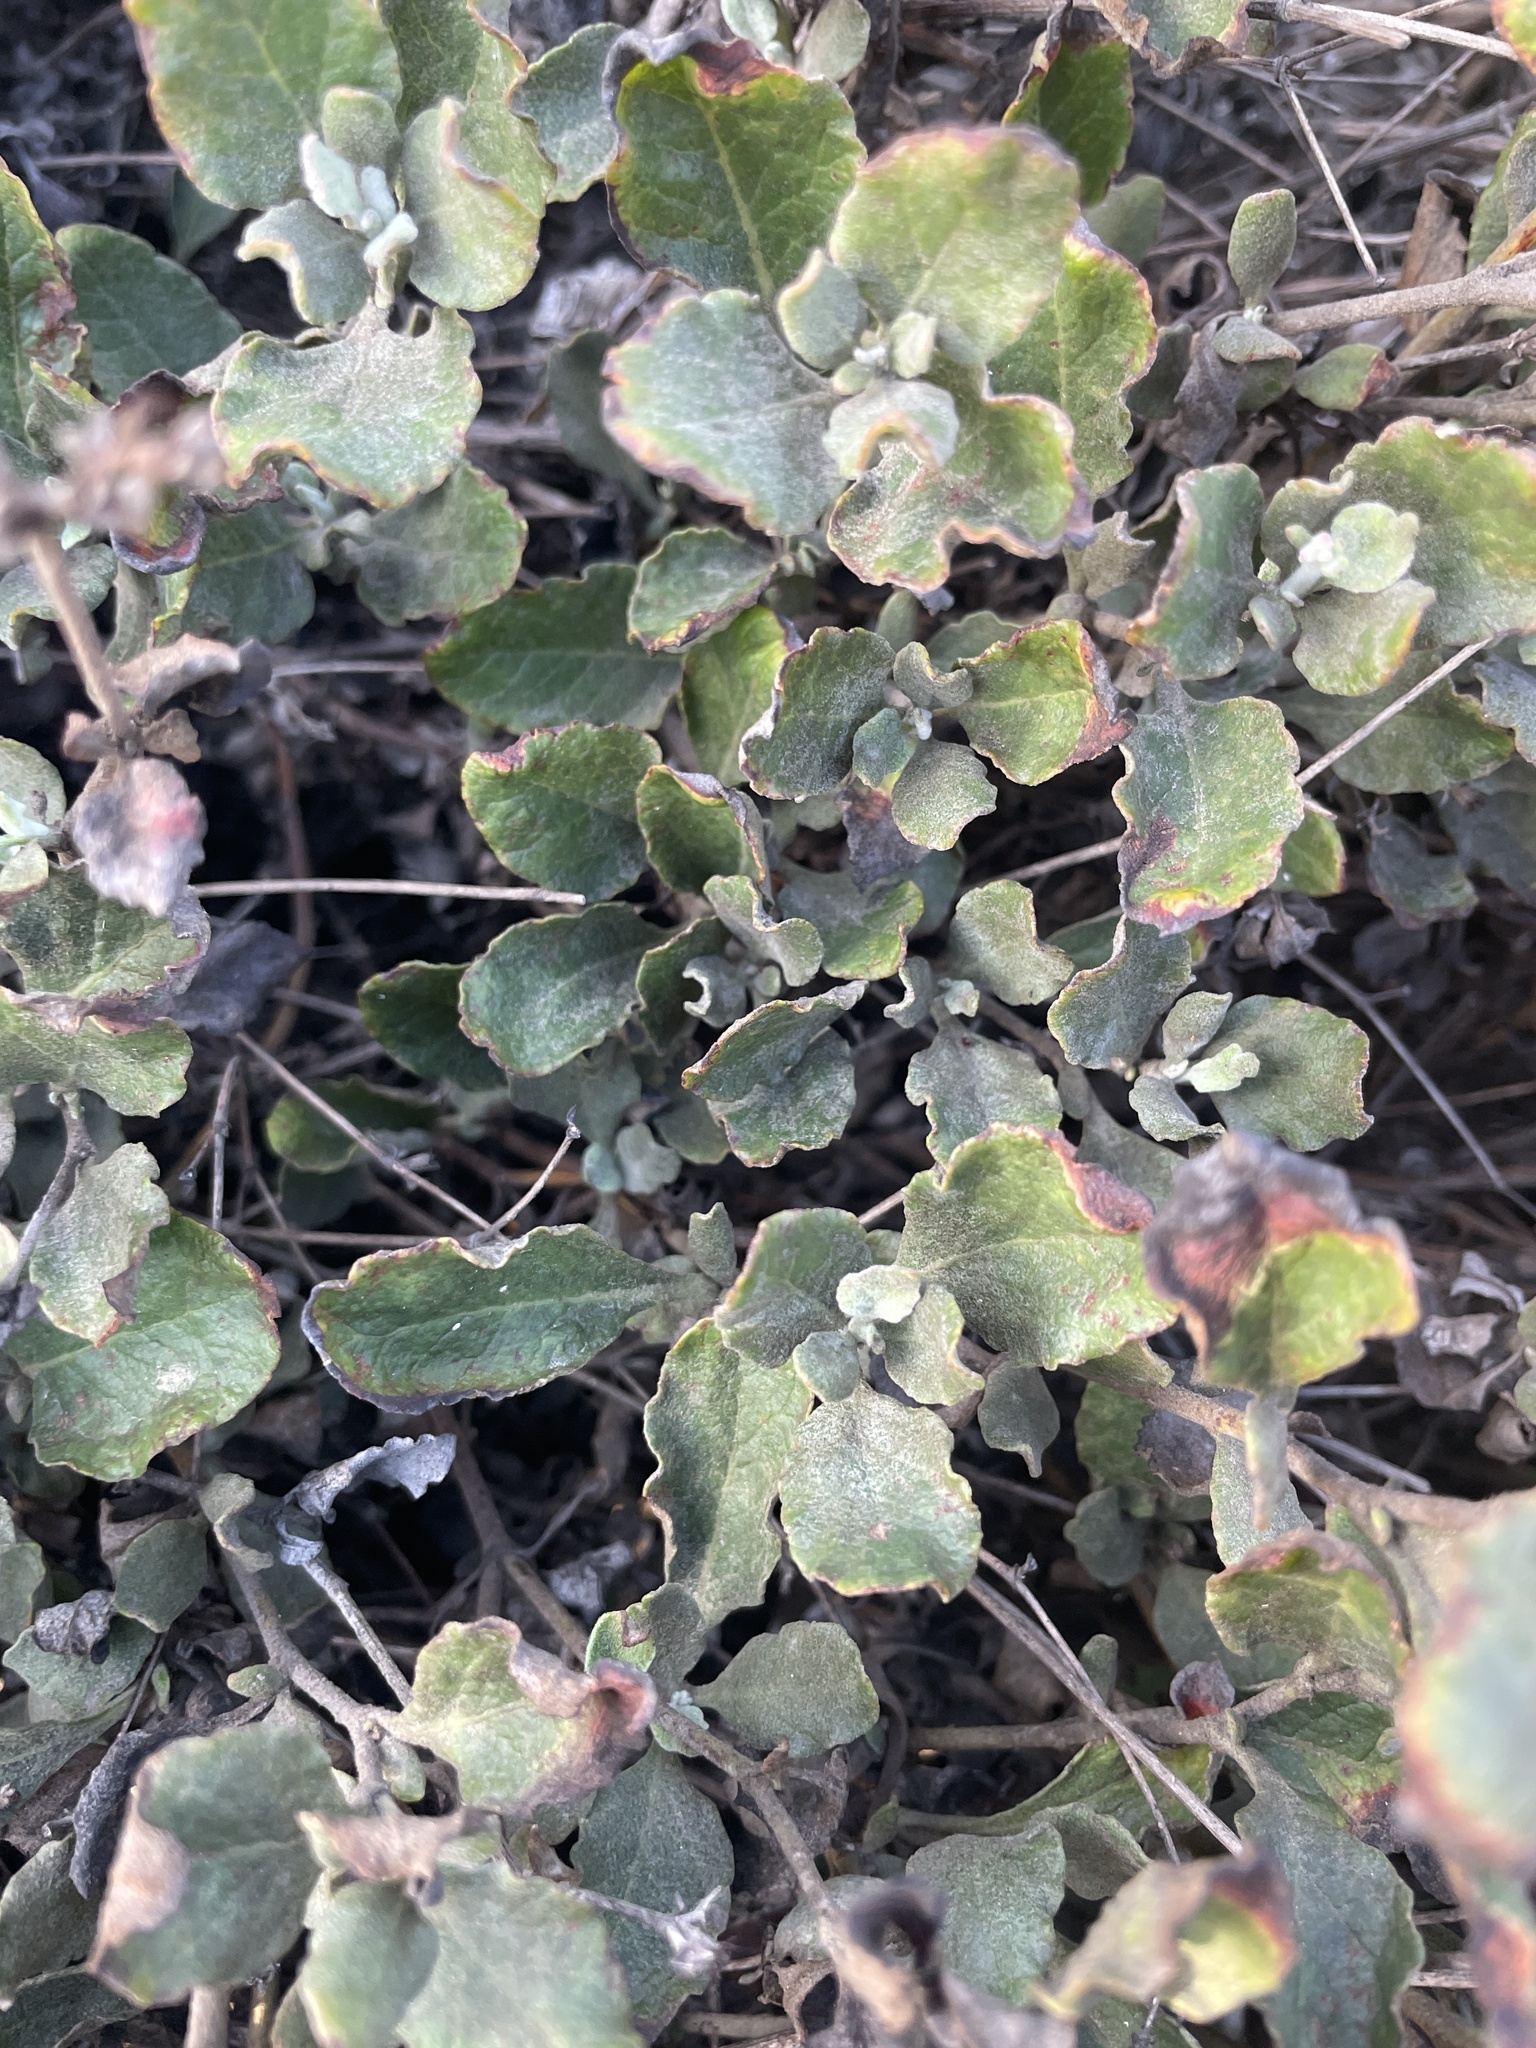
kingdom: Plantae
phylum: Tracheophyta
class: Magnoliopsida
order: Caryophyllales
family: Polygonaceae
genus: Eriogonum
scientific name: Eriogonum cinereum
